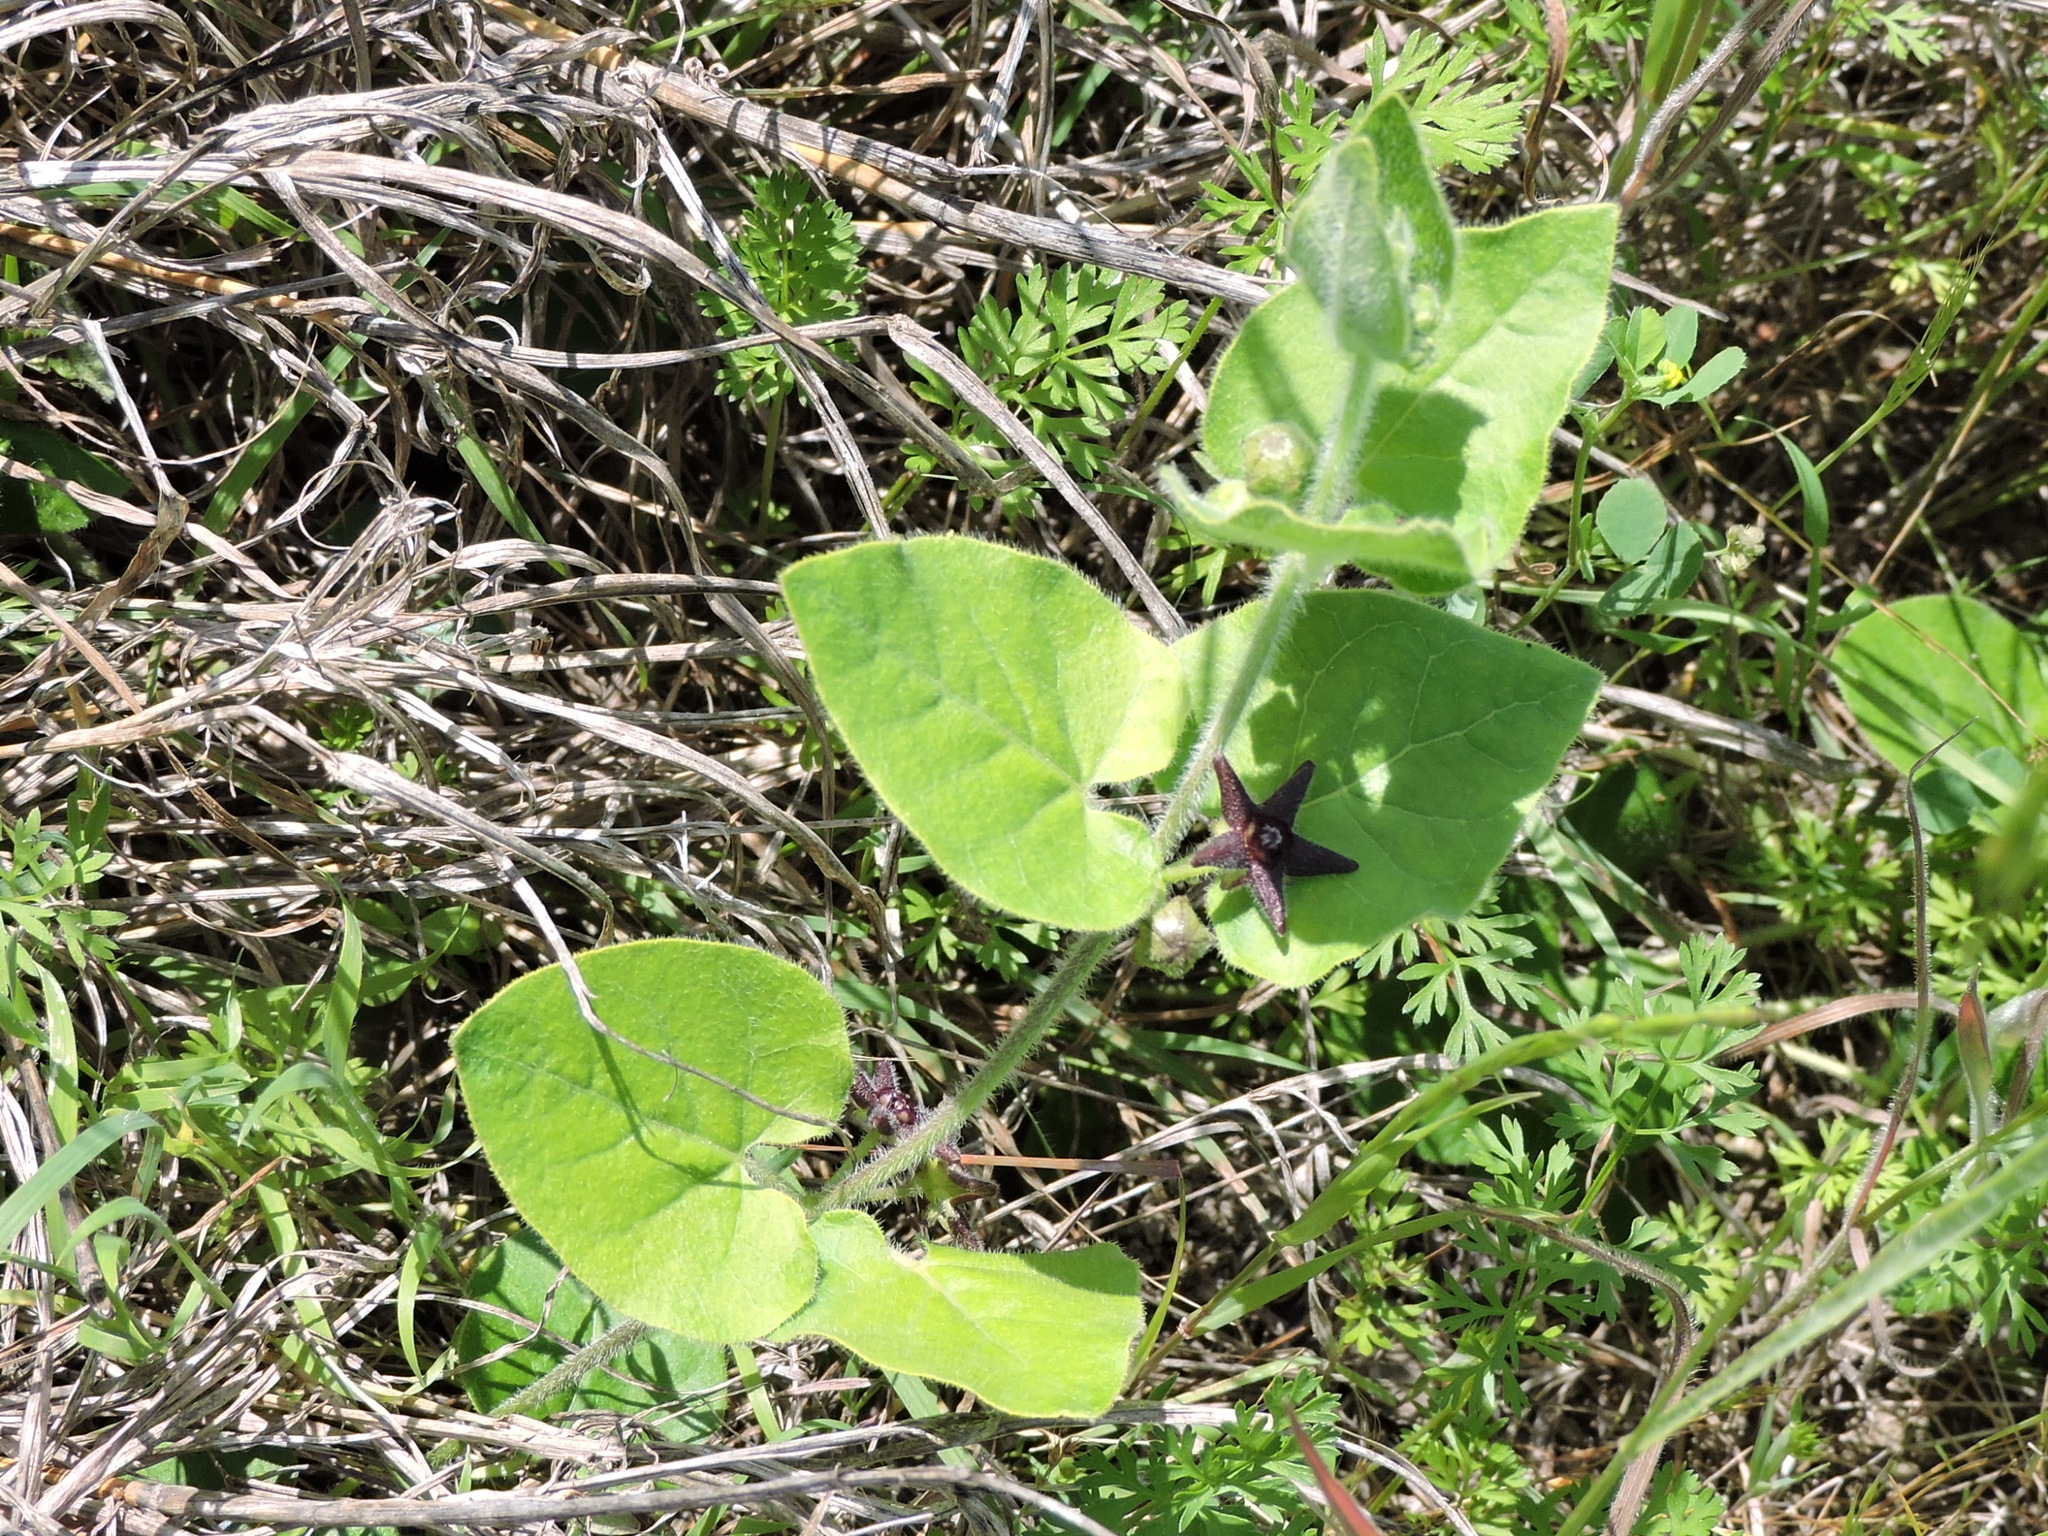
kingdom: Plantae
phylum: Tracheophyta
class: Magnoliopsida
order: Gentianales
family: Apocynaceae
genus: Chthamalia
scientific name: Chthamalia biflora
